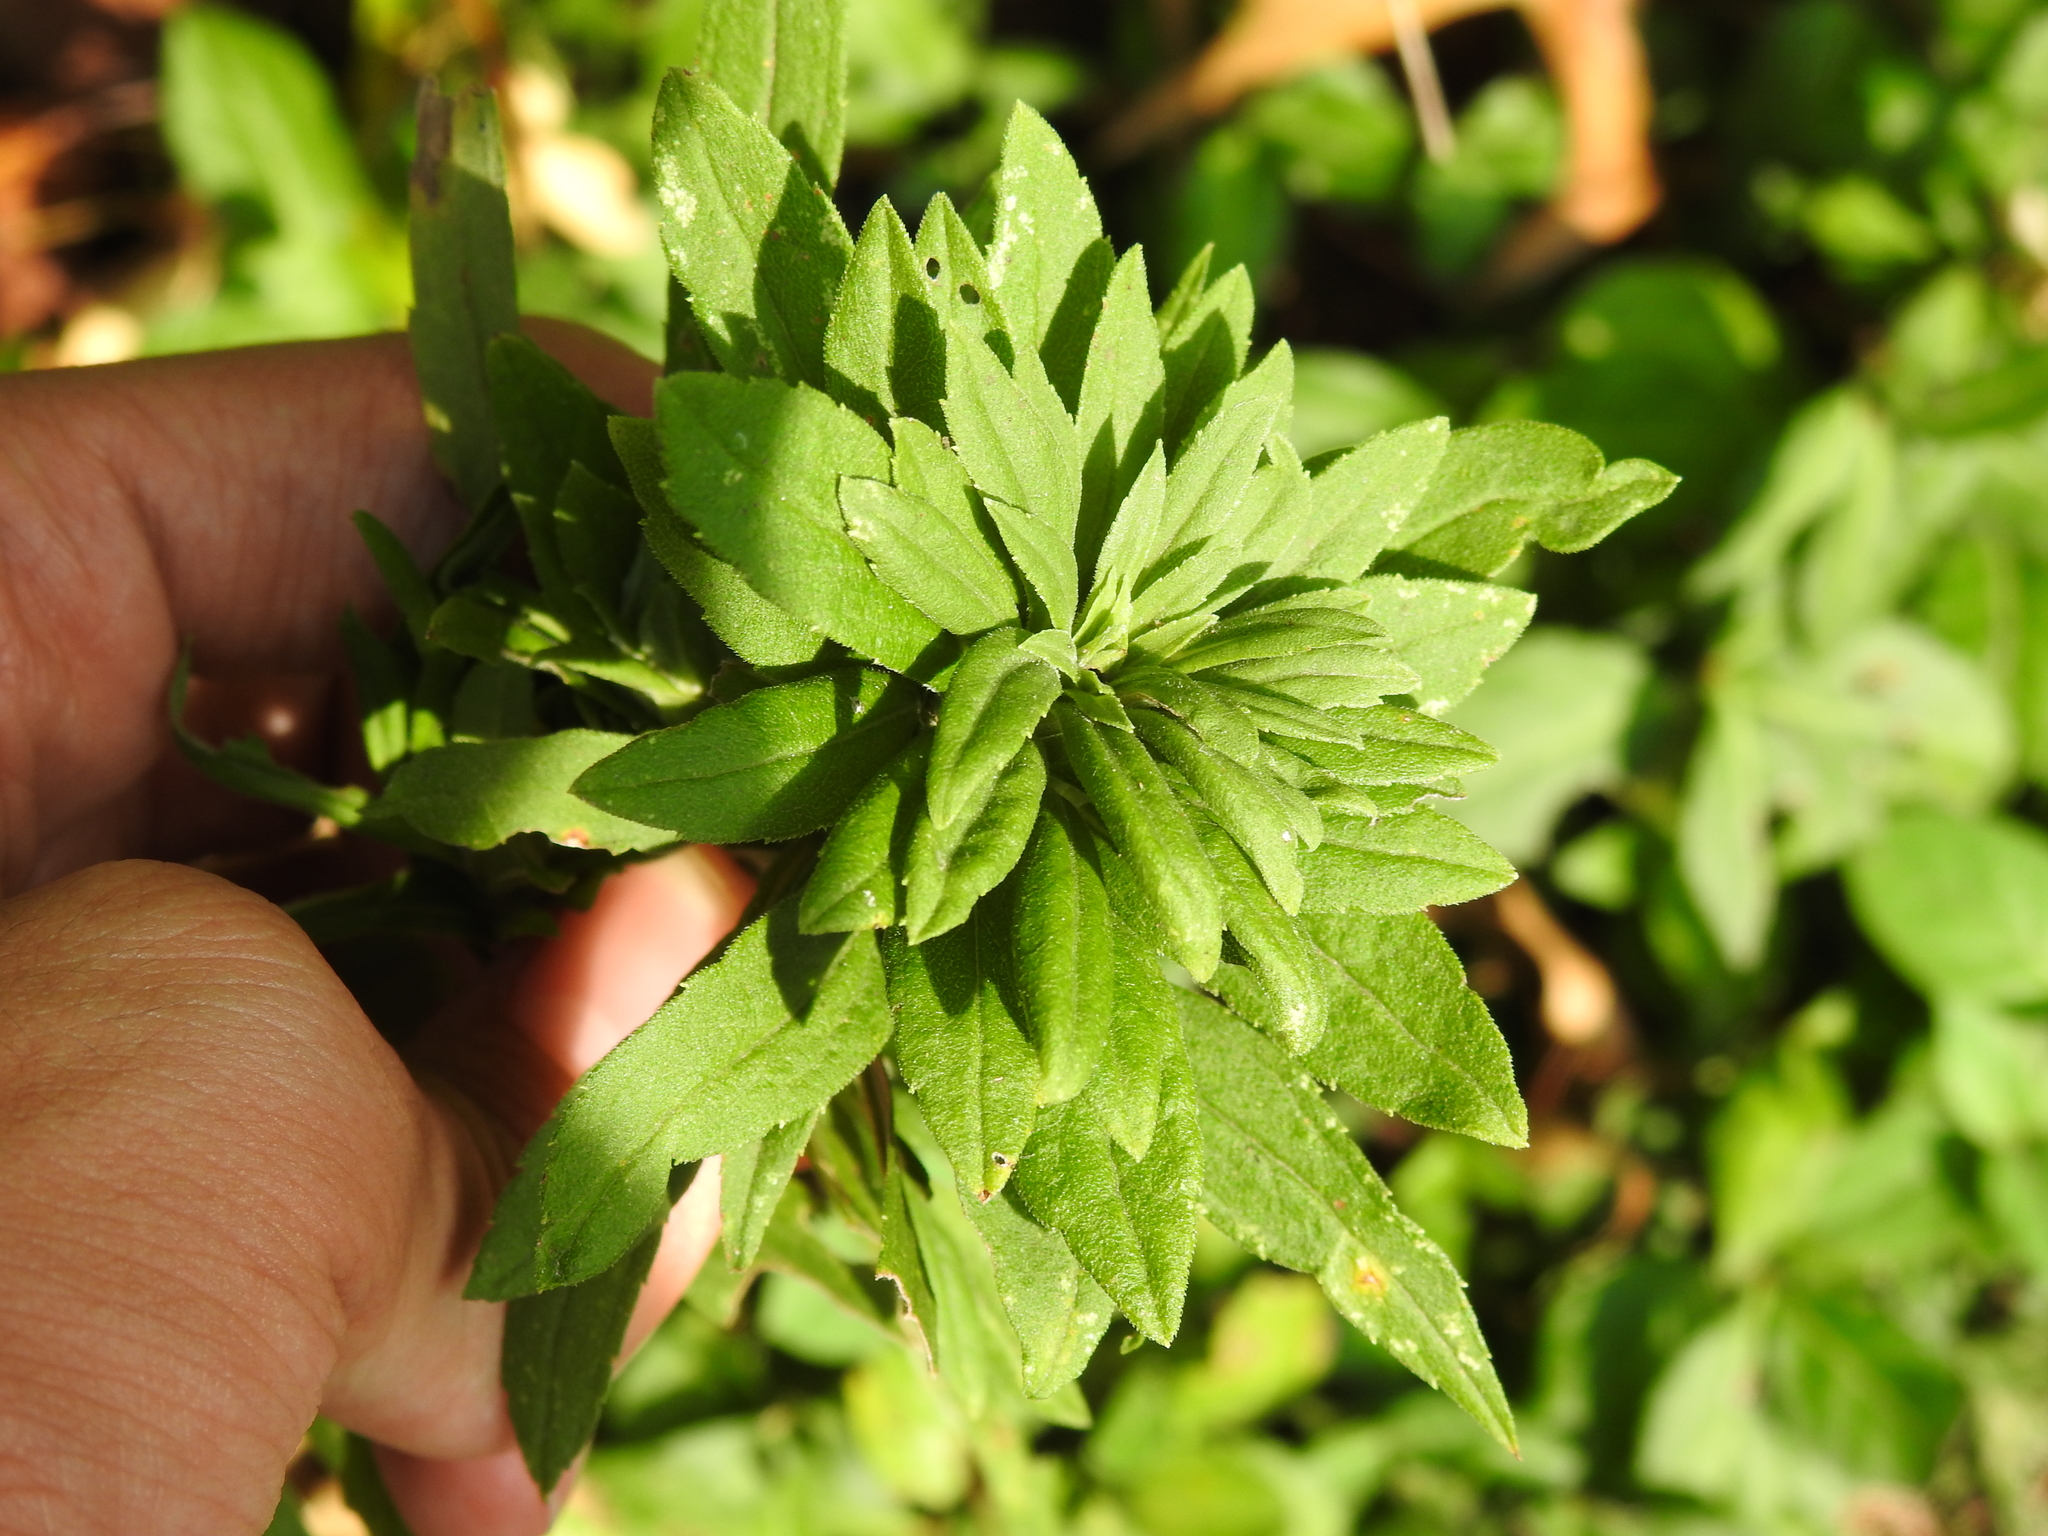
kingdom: Animalia
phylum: Arthropoda
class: Insecta
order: Diptera
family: Cecidomyiidae
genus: Rhopalomyia
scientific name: Rhopalomyia solidaginis
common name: Goldenrod bunch gall midge
